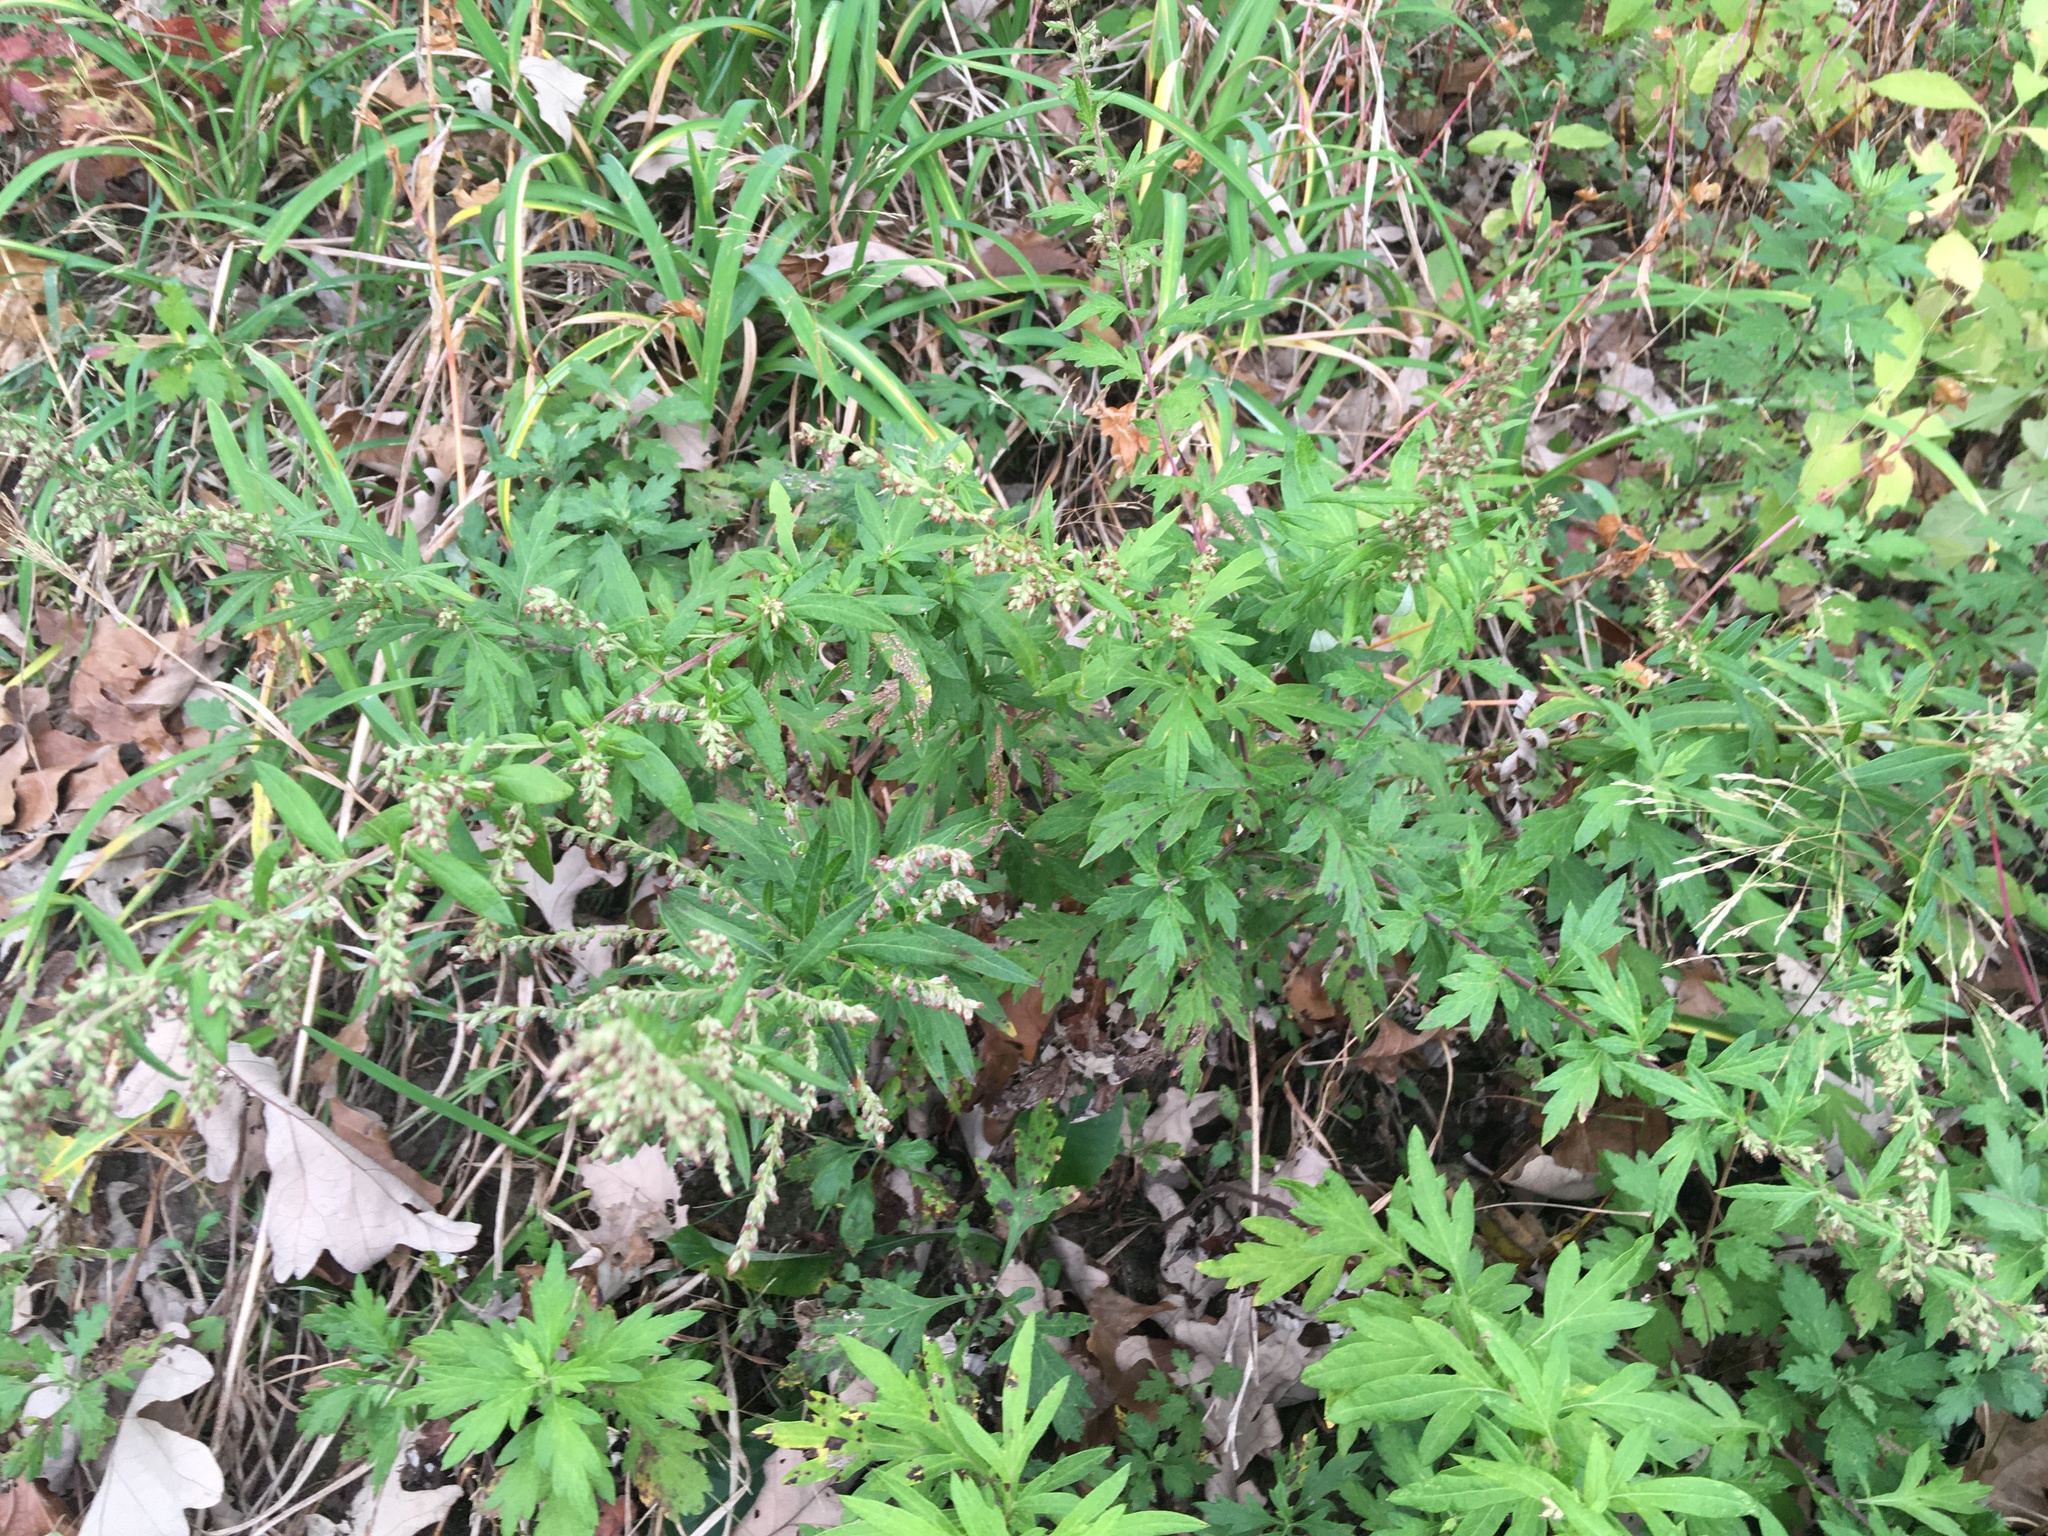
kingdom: Plantae
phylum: Tracheophyta
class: Magnoliopsida
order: Asterales
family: Asteraceae
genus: Artemisia
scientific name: Artemisia vulgaris
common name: Mugwort
